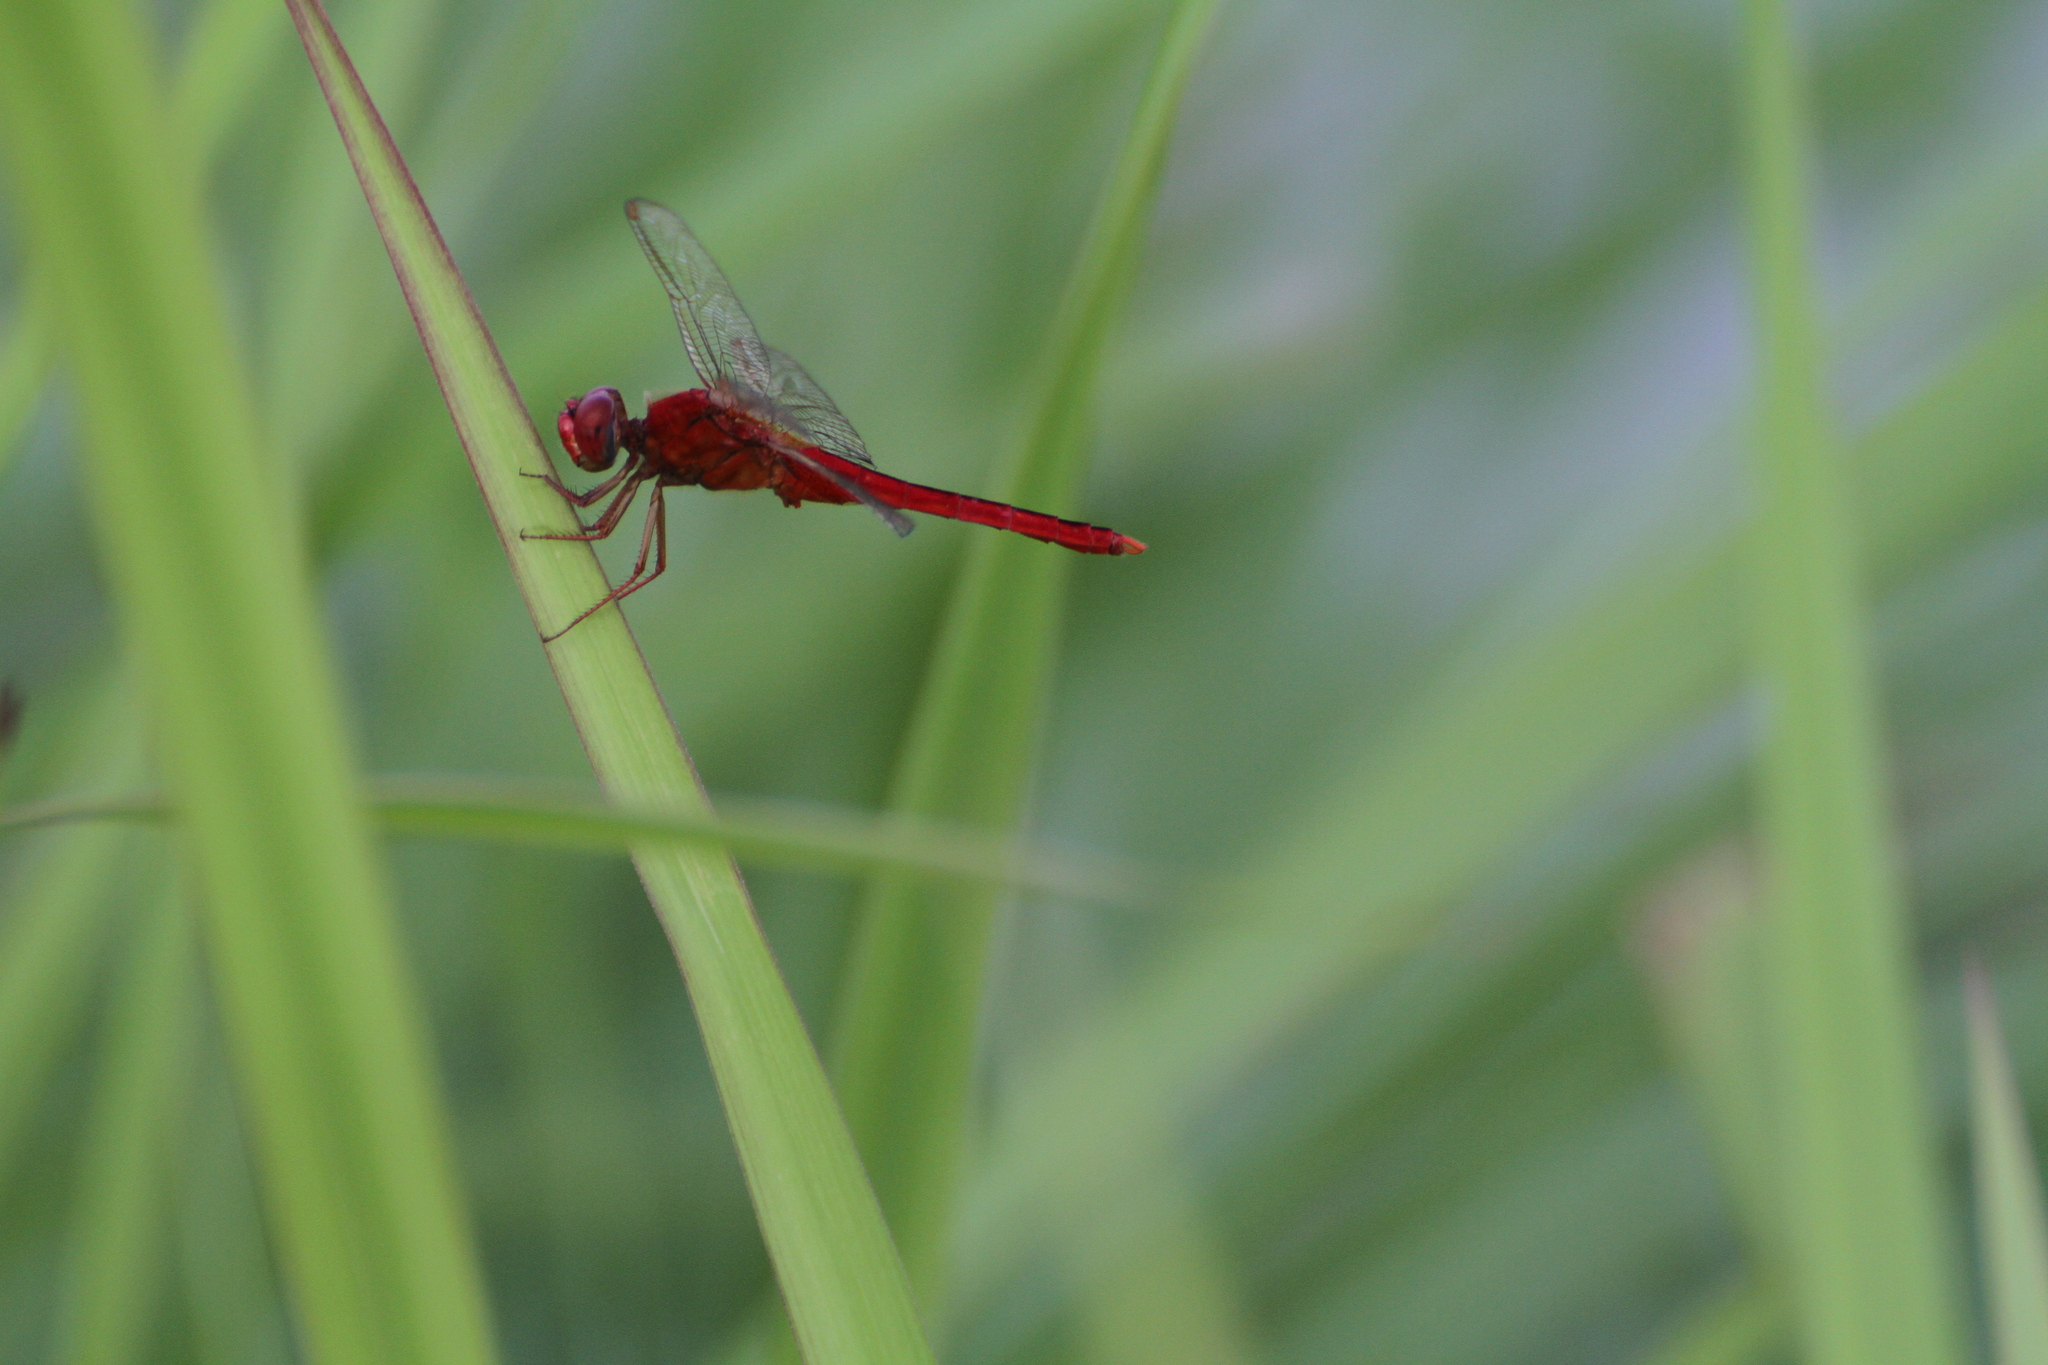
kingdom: Animalia
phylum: Arthropoda
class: Insecta
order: Odonata
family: Libellulidae
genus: Crocothemis
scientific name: Crocothemis servilia
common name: Scarlet skimmer
